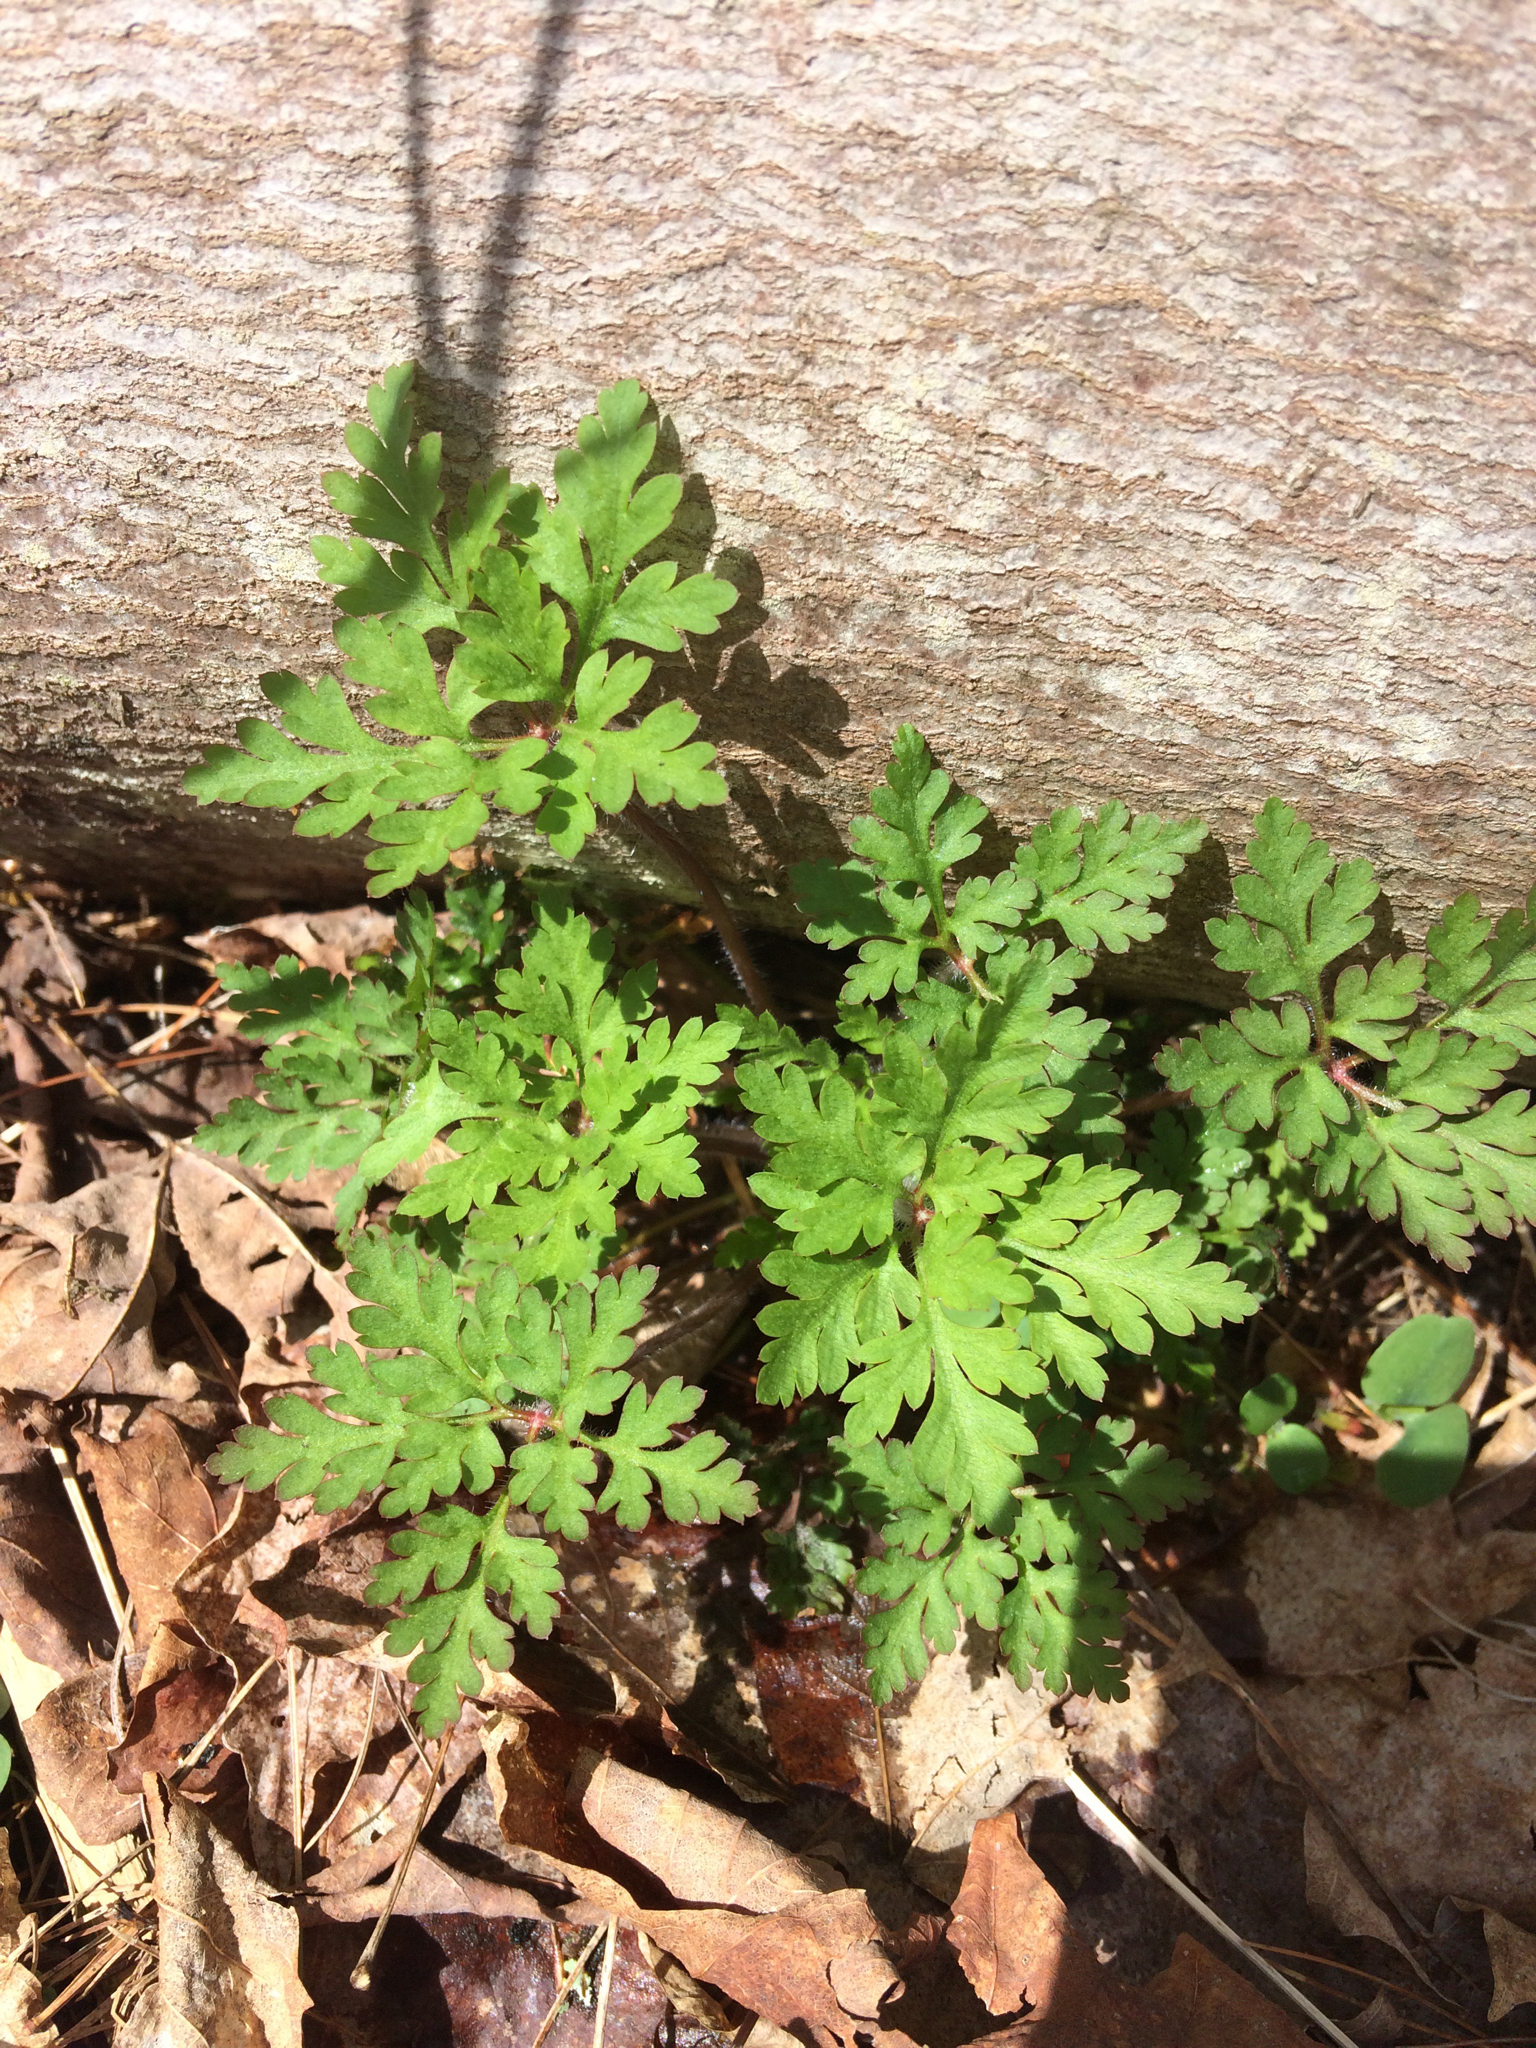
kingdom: Plantae
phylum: Tracheophyta
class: Magnoliopsida
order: Geraniales
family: Geraniaceae
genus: Geranium
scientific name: Geranium robertianum
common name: Herb-robert
